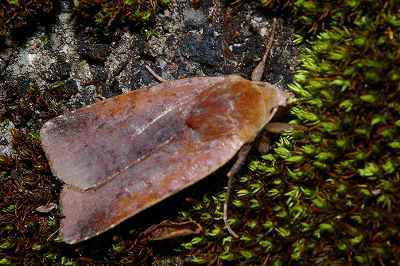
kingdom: Animalia
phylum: Arthropoda
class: Insecta
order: Lepidoptera
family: Noctuidae
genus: Diarsia
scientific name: Diarsia ruficauda
